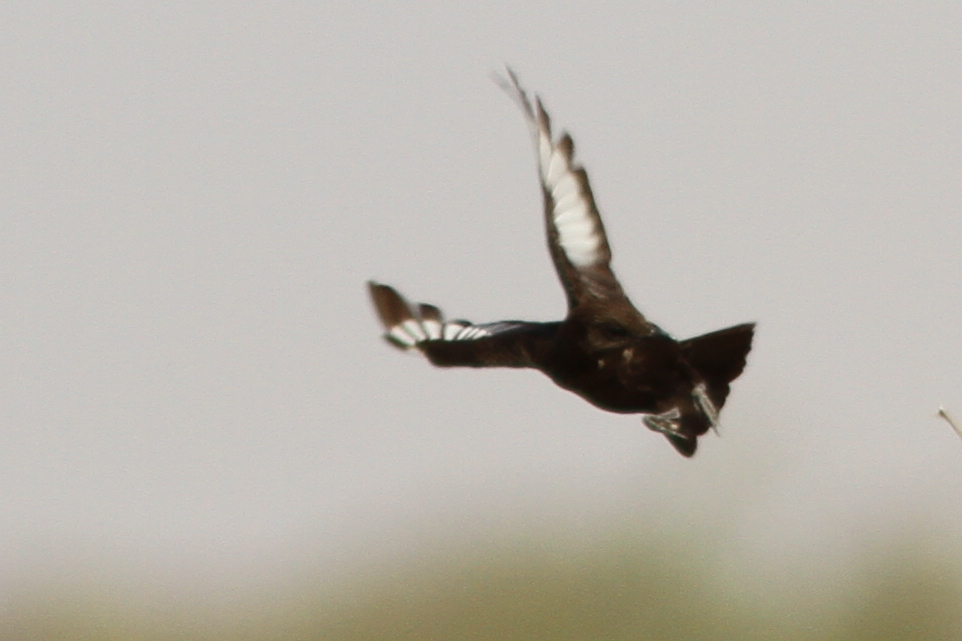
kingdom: Animalia
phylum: Chordata
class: Aves
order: Passeriformes
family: Muscicapidae
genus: Myrmecocichla
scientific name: Myrmecocichla aethiops
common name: Anteater chat
